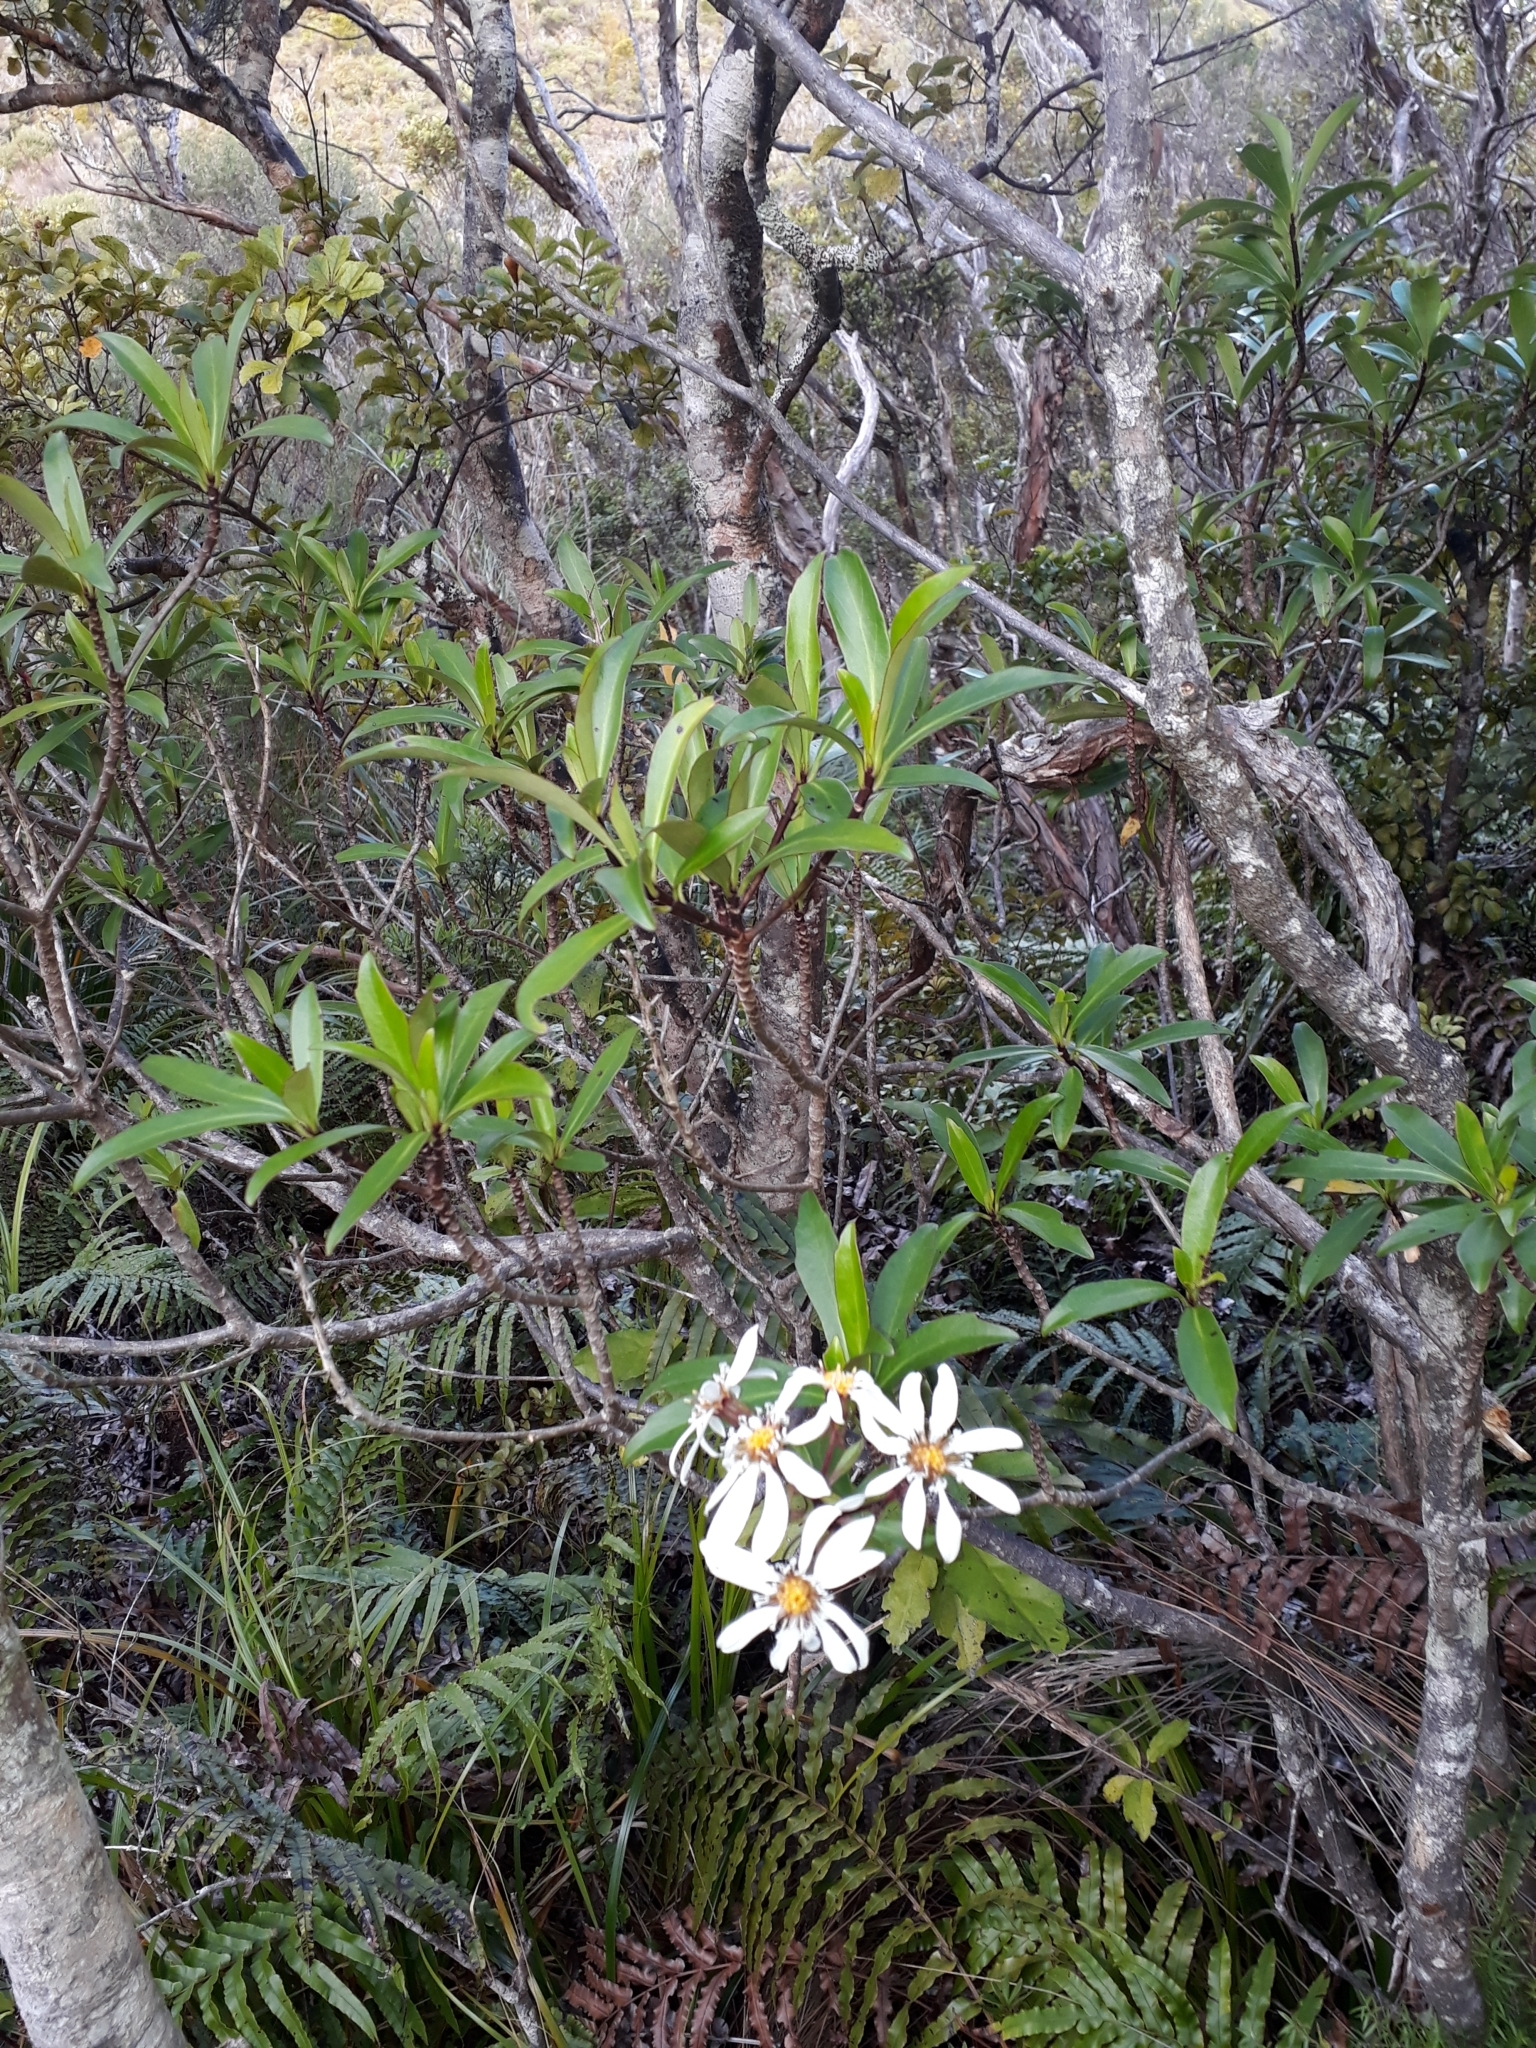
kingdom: Plantae
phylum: Tracheophyta
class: Magnoliopsida
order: Asterales
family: Asteraceae
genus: Brachyglottis
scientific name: Brachyglottis kirkii
